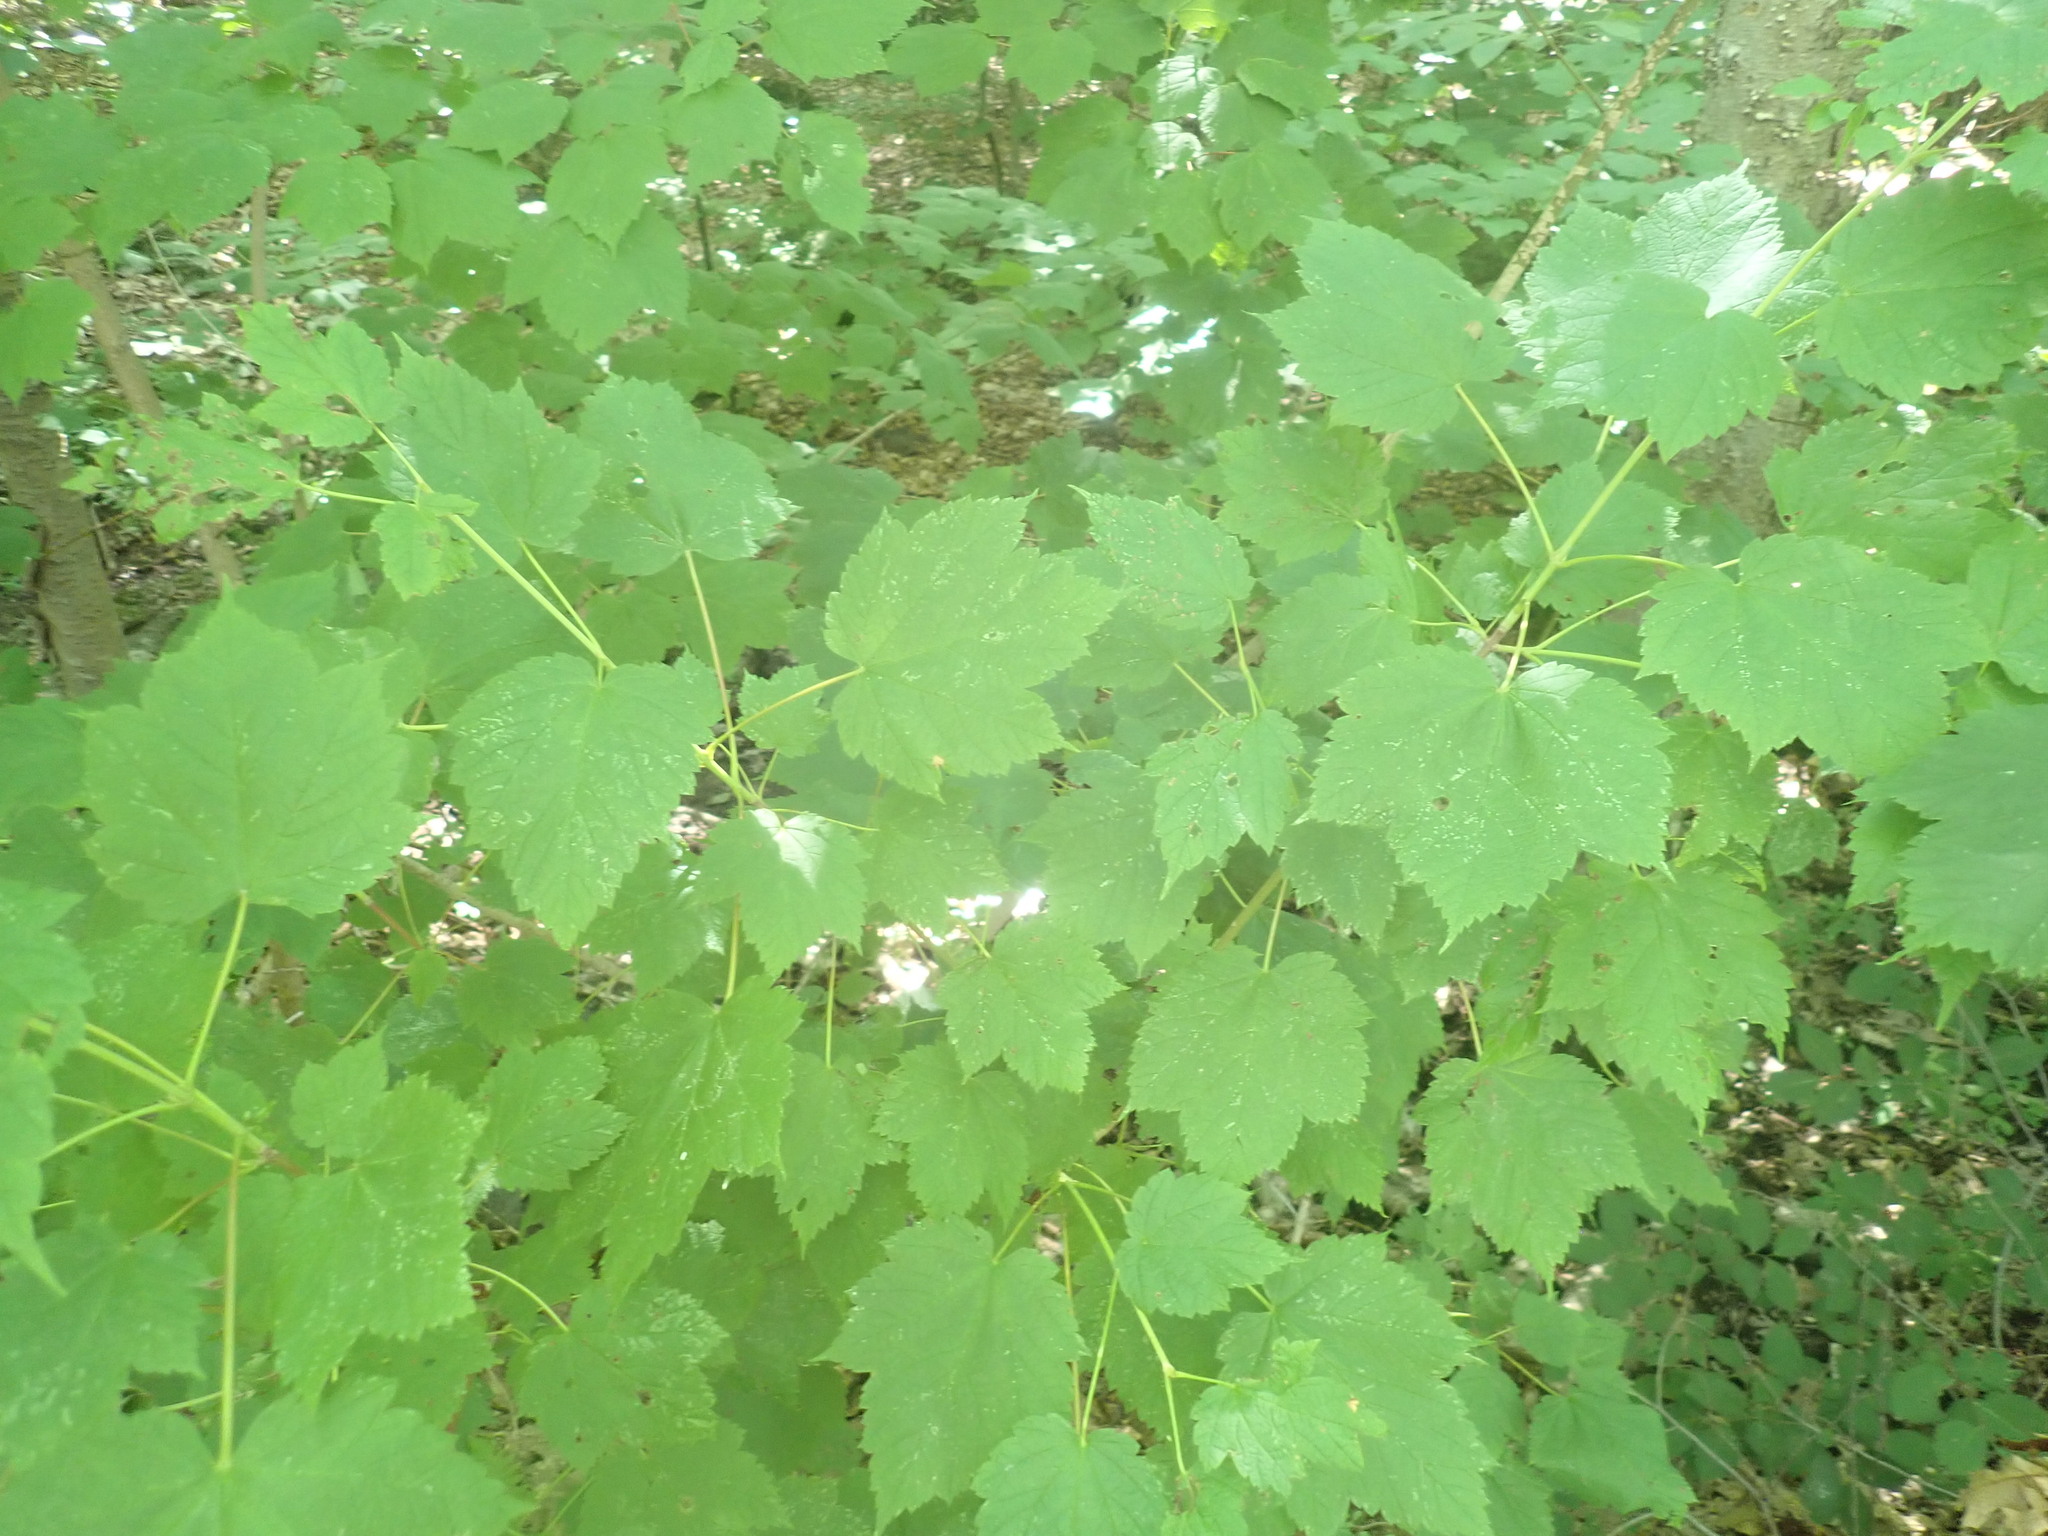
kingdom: Plantae
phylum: Tracheophyta
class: Magnoliopsida
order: Sapindales
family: Sapindaceae
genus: Acer
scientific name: Acer spicatum
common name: Mountain maple
